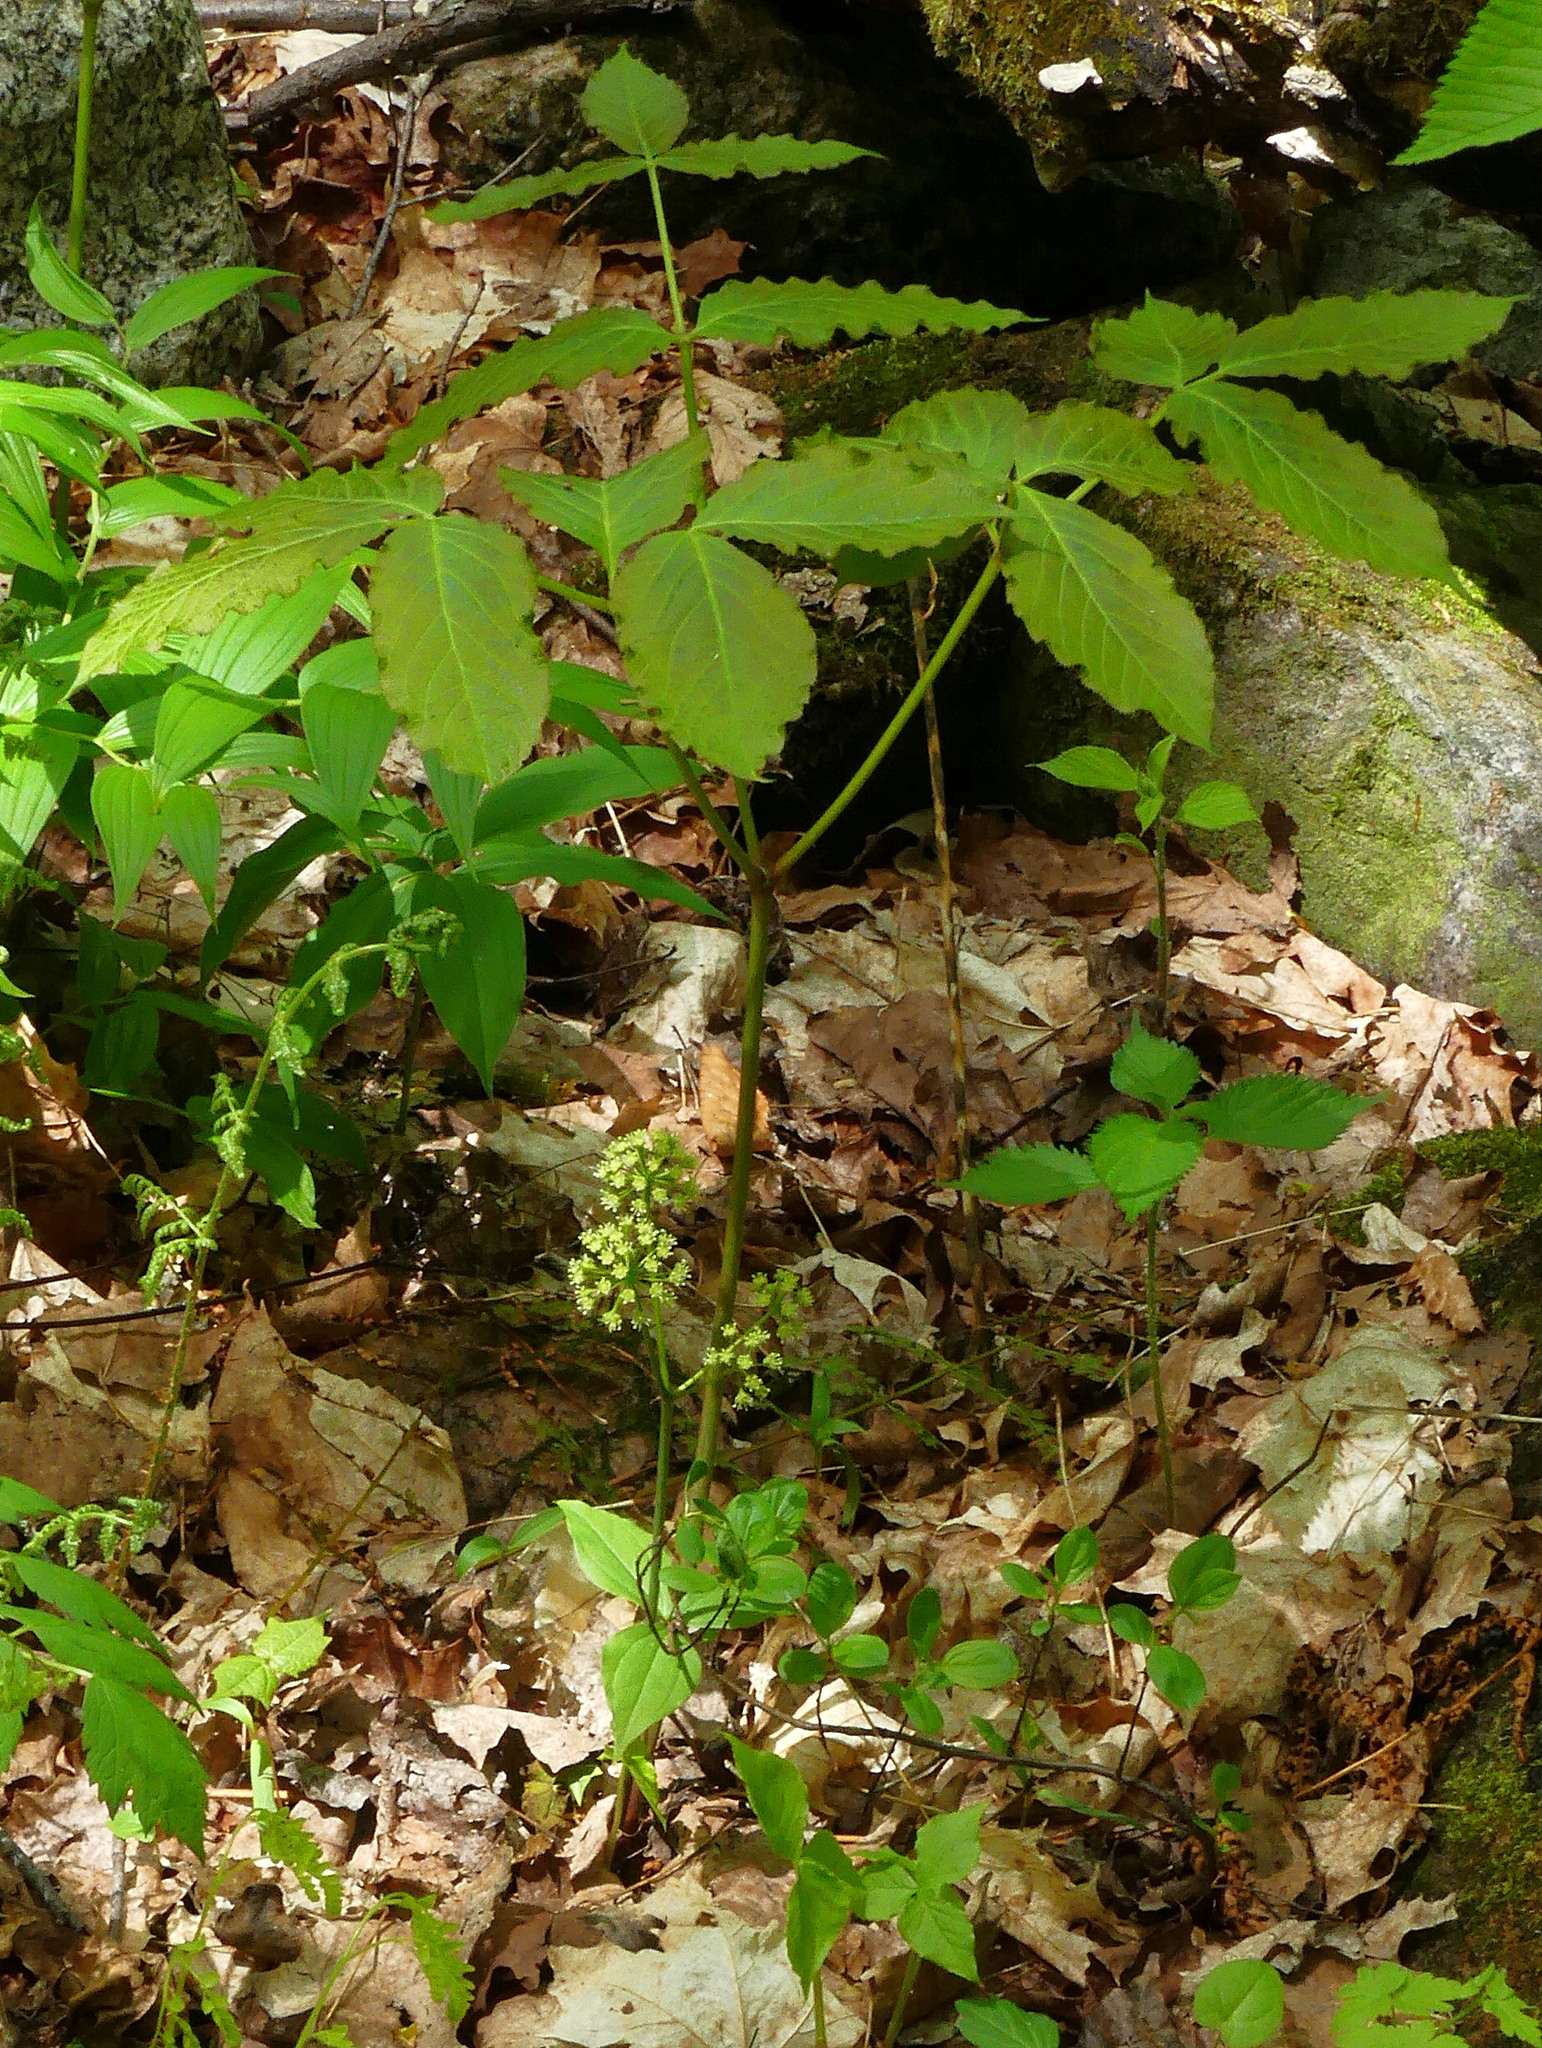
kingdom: Plantae
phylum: Tracheophyta
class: Magnoliopsida
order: Apiales
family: Araliaceae
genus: Aralia
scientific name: Aralia nudicaulis
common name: Wild sarsaparilla
